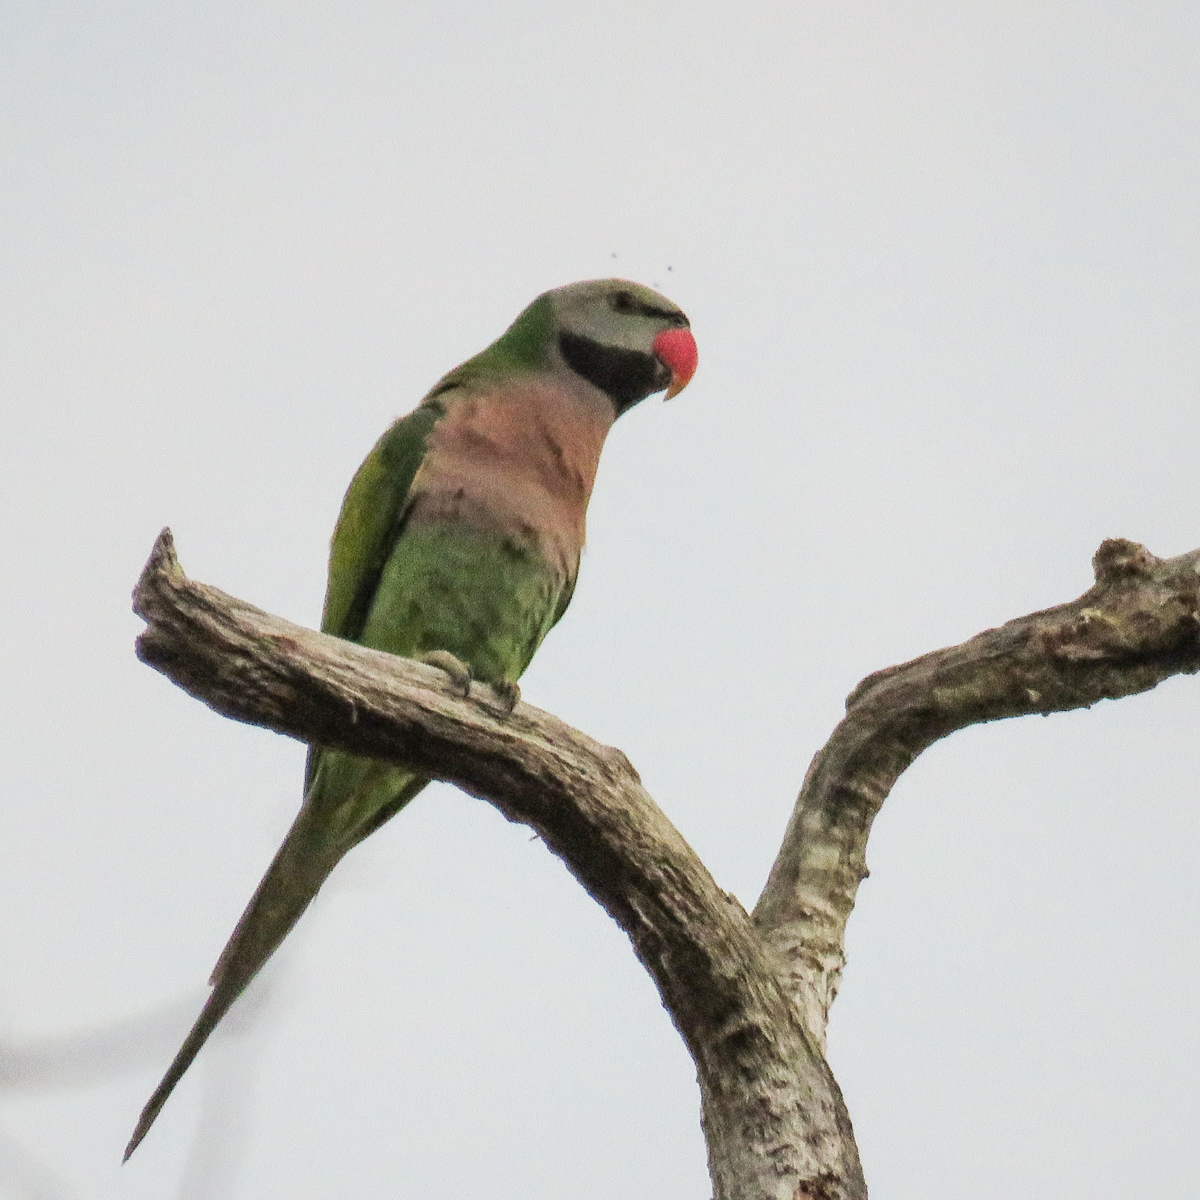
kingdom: Animalia
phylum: Chordata
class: Aves
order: Psittaciformes
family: Psittacidae
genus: Psittacula
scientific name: Psittacula alexandri
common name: Red-breasted parakeet
